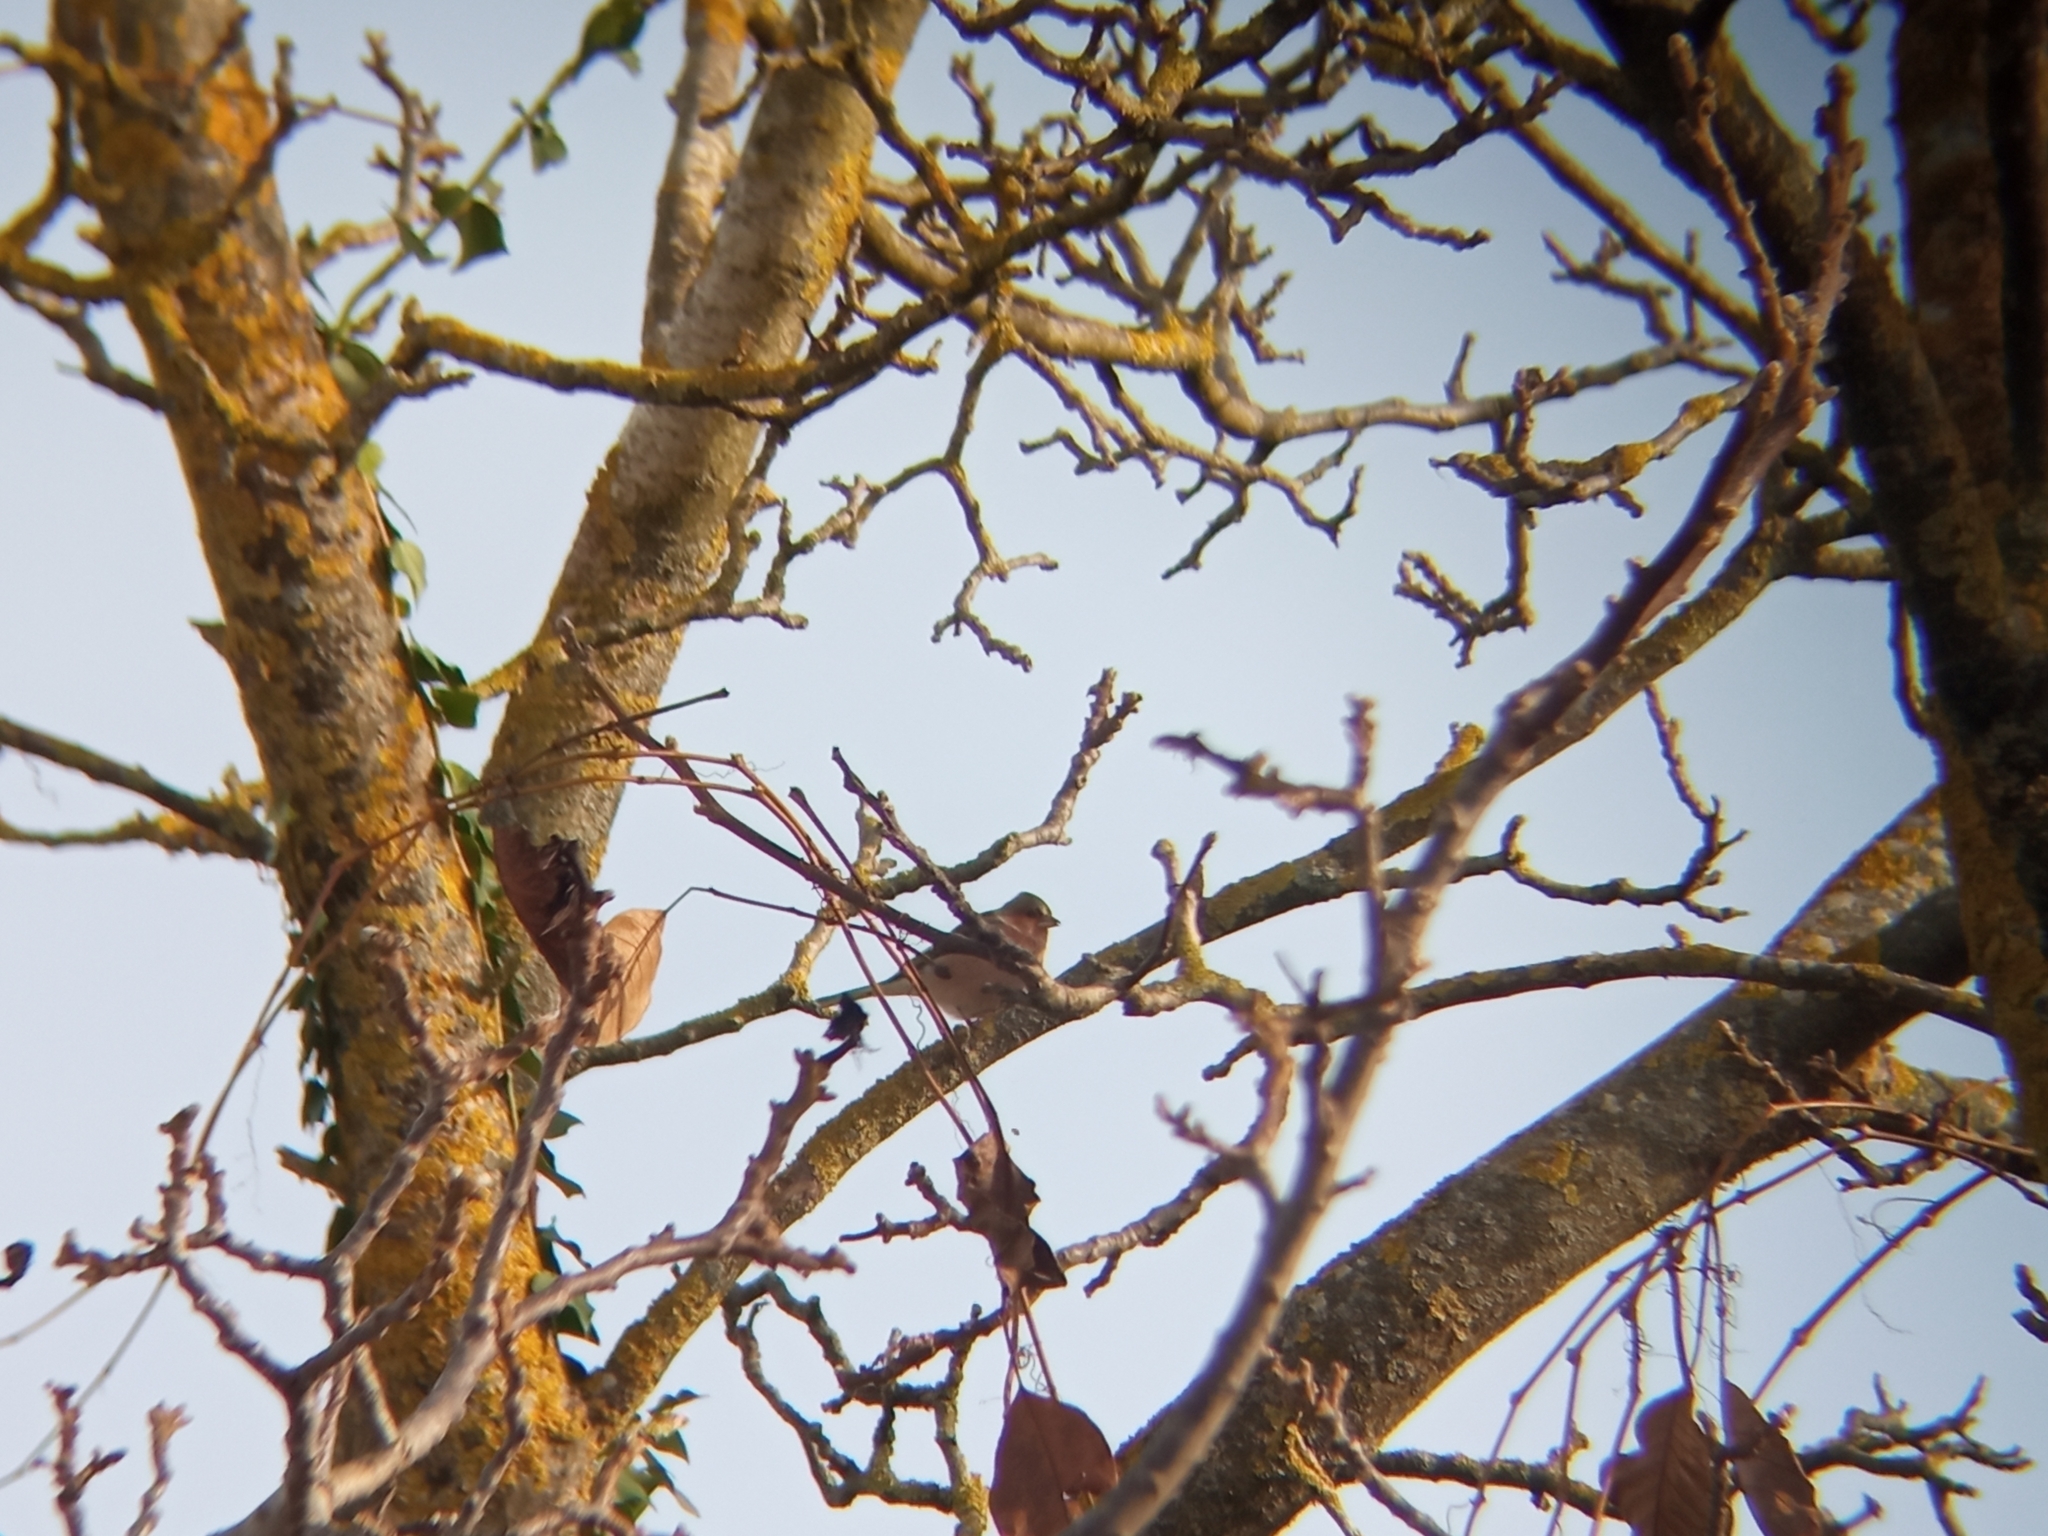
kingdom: Animalia
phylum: Chordata
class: Aves
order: Passeriformes
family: Fringillidae
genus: Fringilla
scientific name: Fringilla coelebs
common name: Common chaffinch
